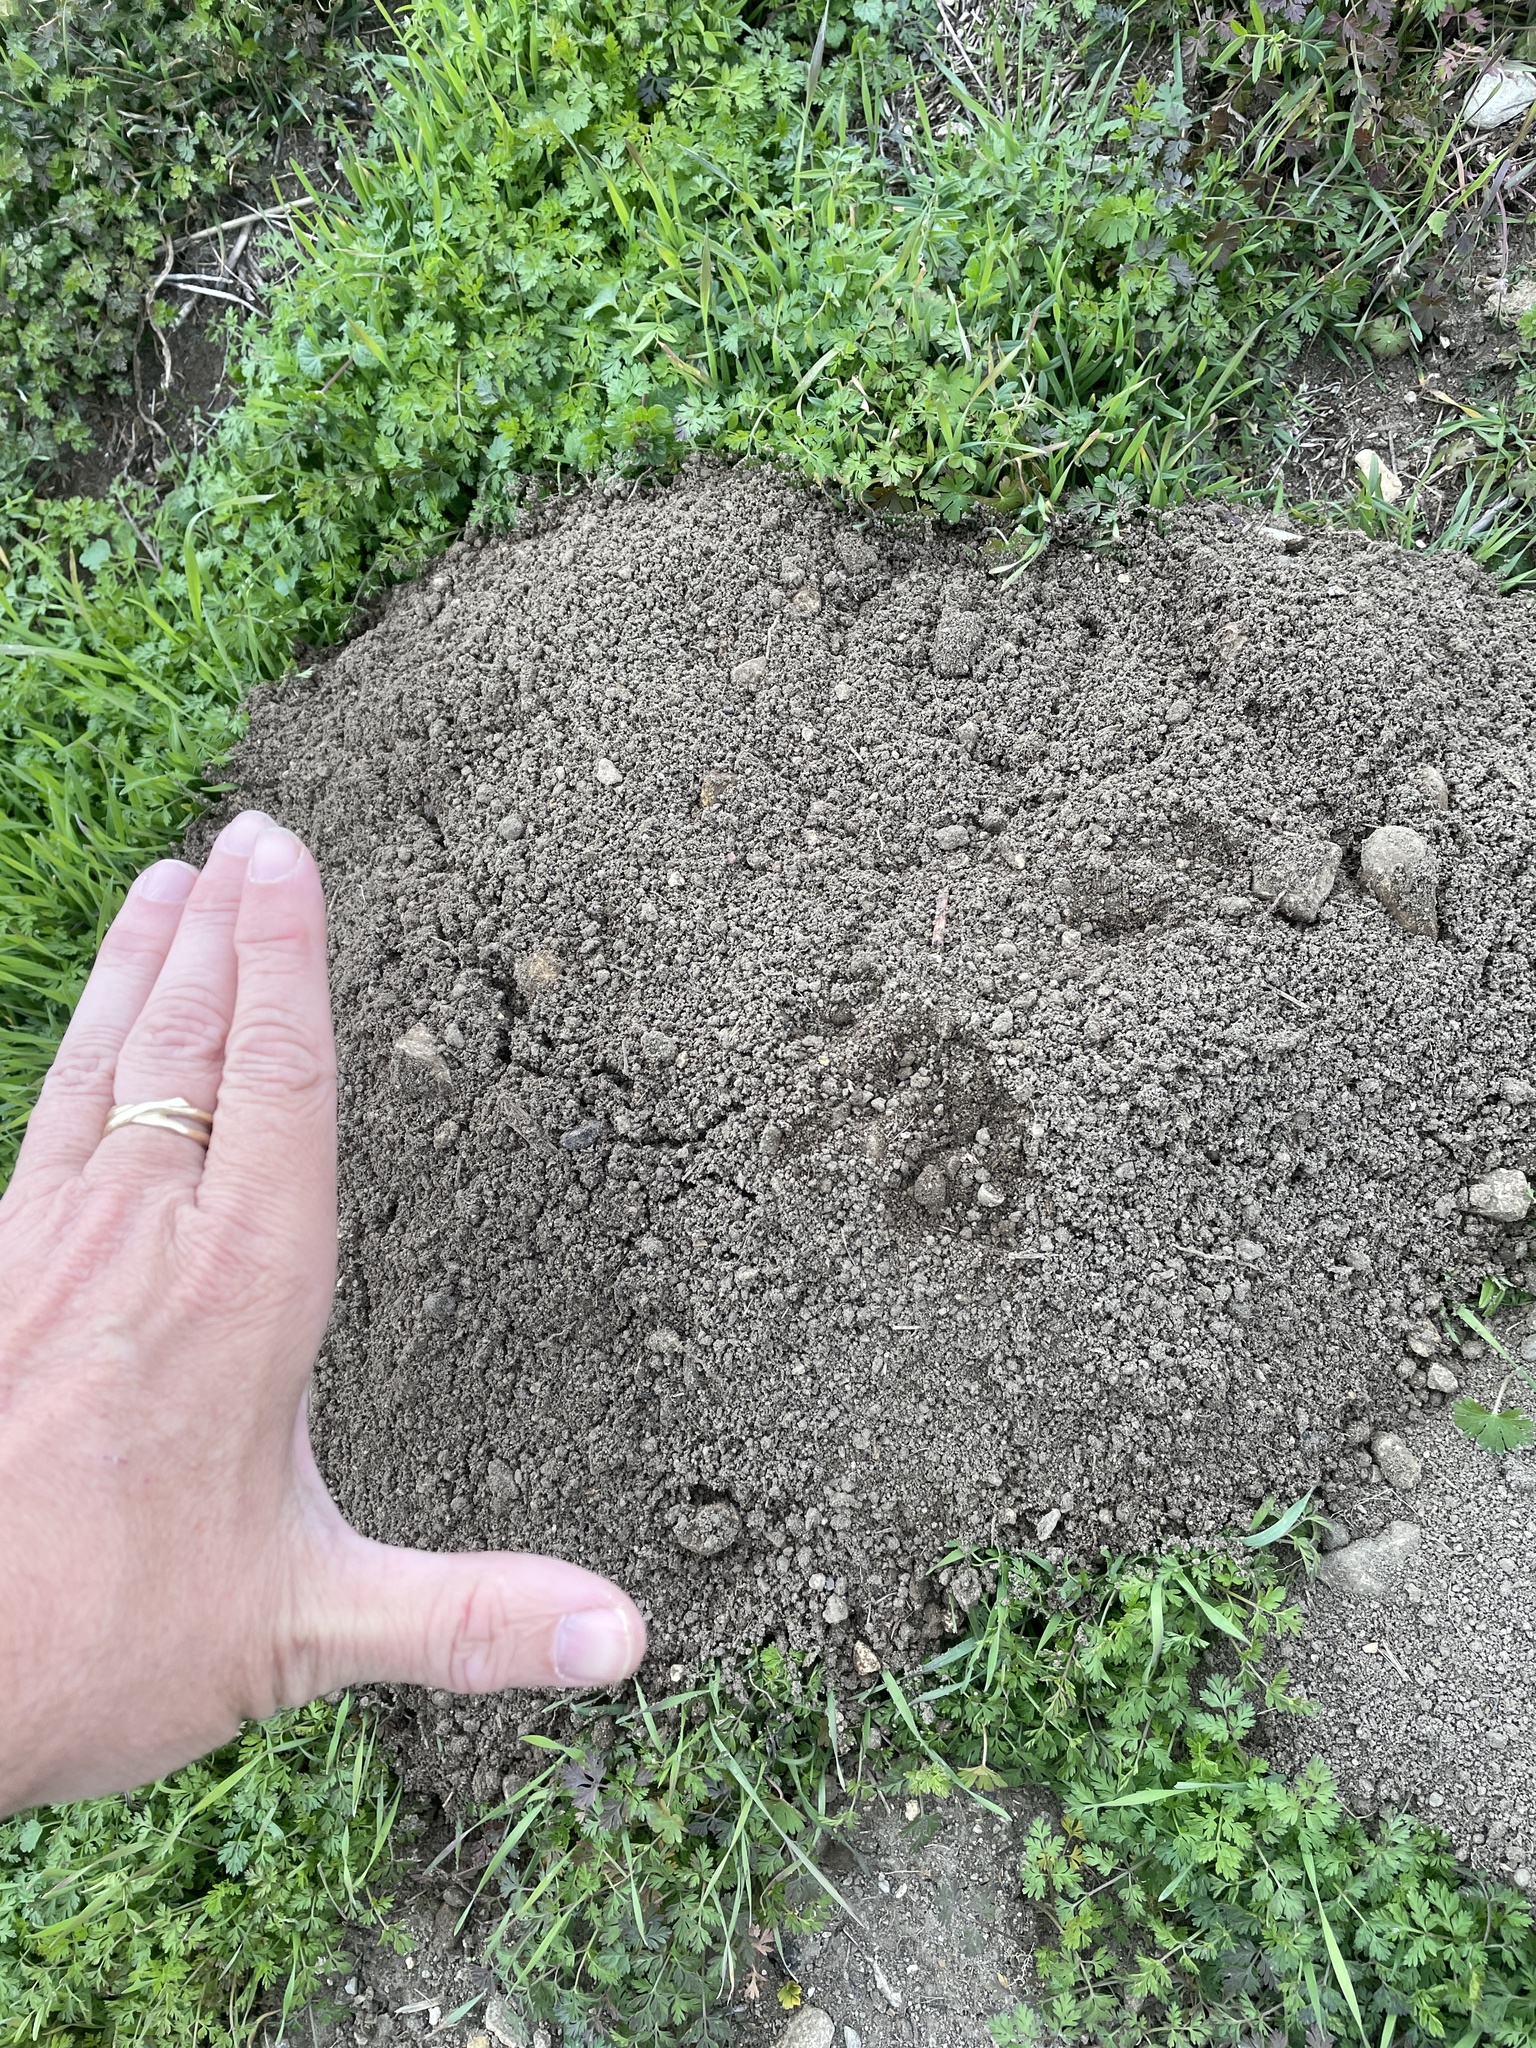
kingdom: Animalia
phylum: Chordata
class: Mammalia
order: Rodentia
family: Geomyidae
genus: Geomys
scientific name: Geomys bursarius
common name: Plains pocket gopher
